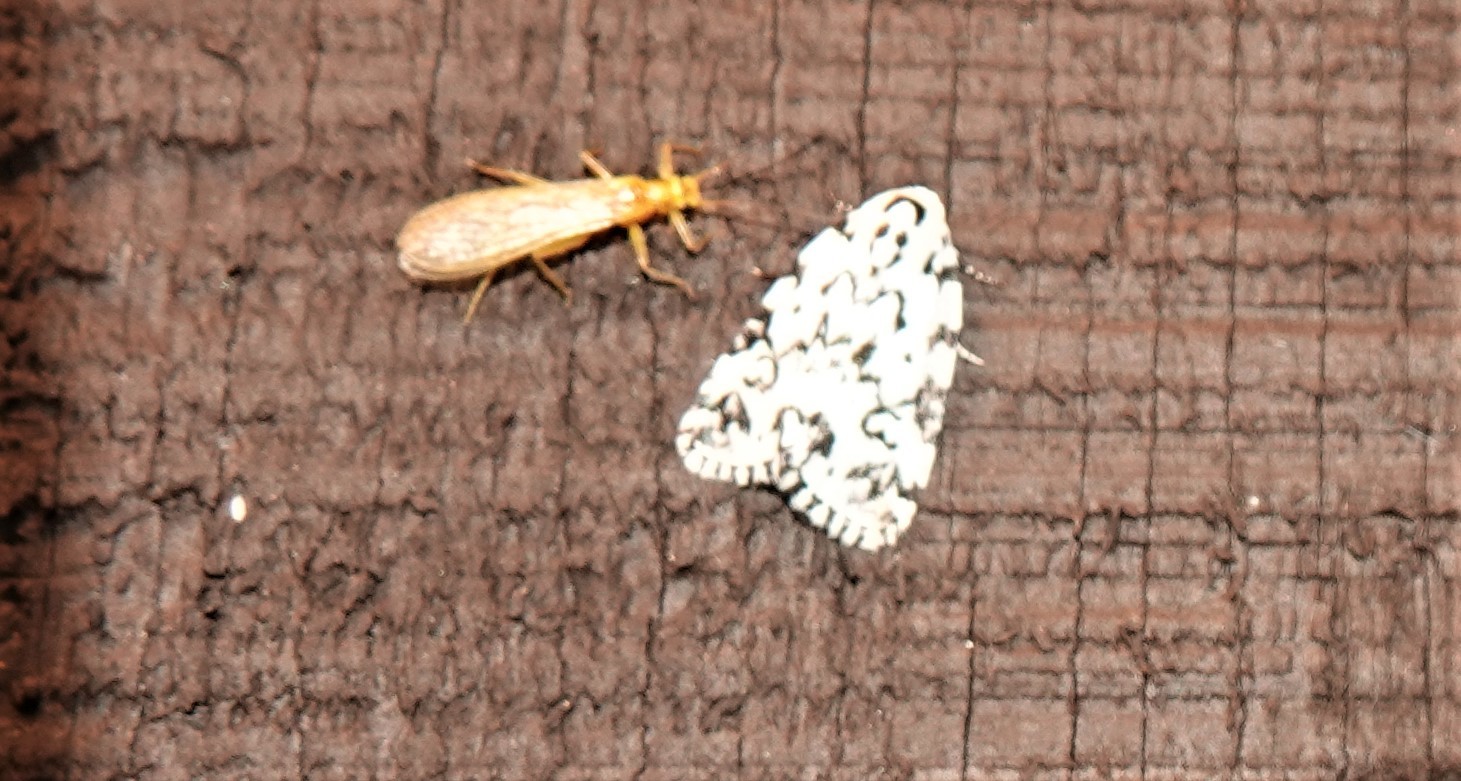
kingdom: Animalia
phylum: Arthropoda
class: Insecta
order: Lepidoptera
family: Noctuidae
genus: Polygrammate
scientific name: Polygrammate hebraeicum
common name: Hebrew moth
